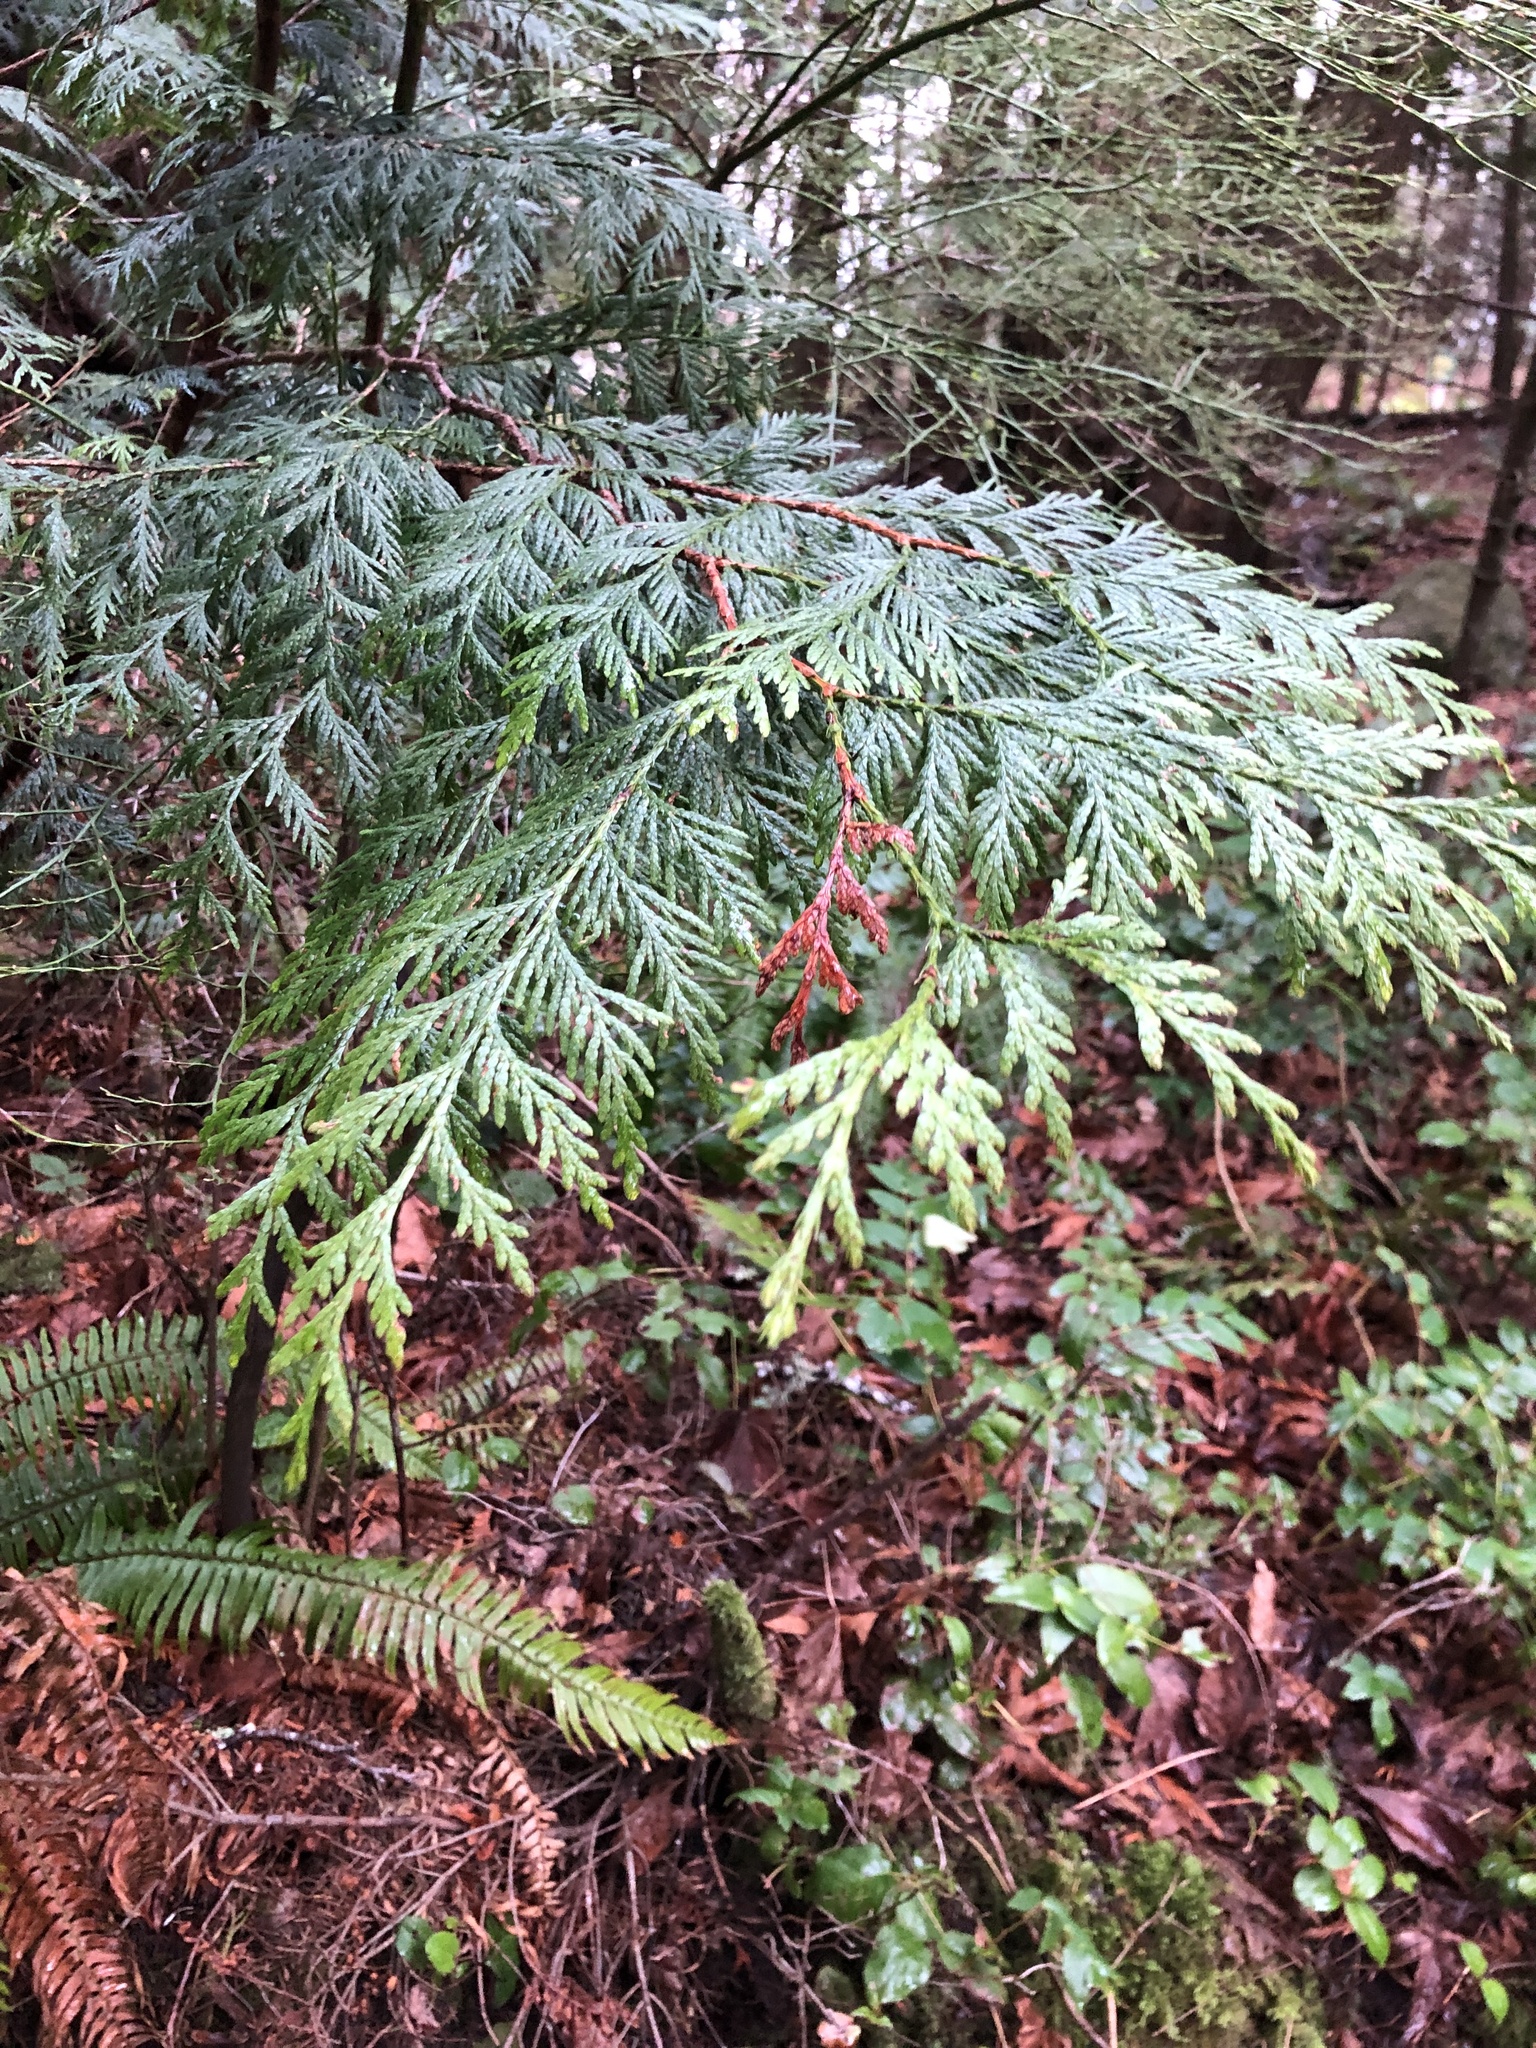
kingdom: Plantae
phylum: Tracheophyta
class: Pinopsida
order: Pinales
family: Cupressaceae
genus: Thuja
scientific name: Thuja plicata
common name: Western red-cedar
